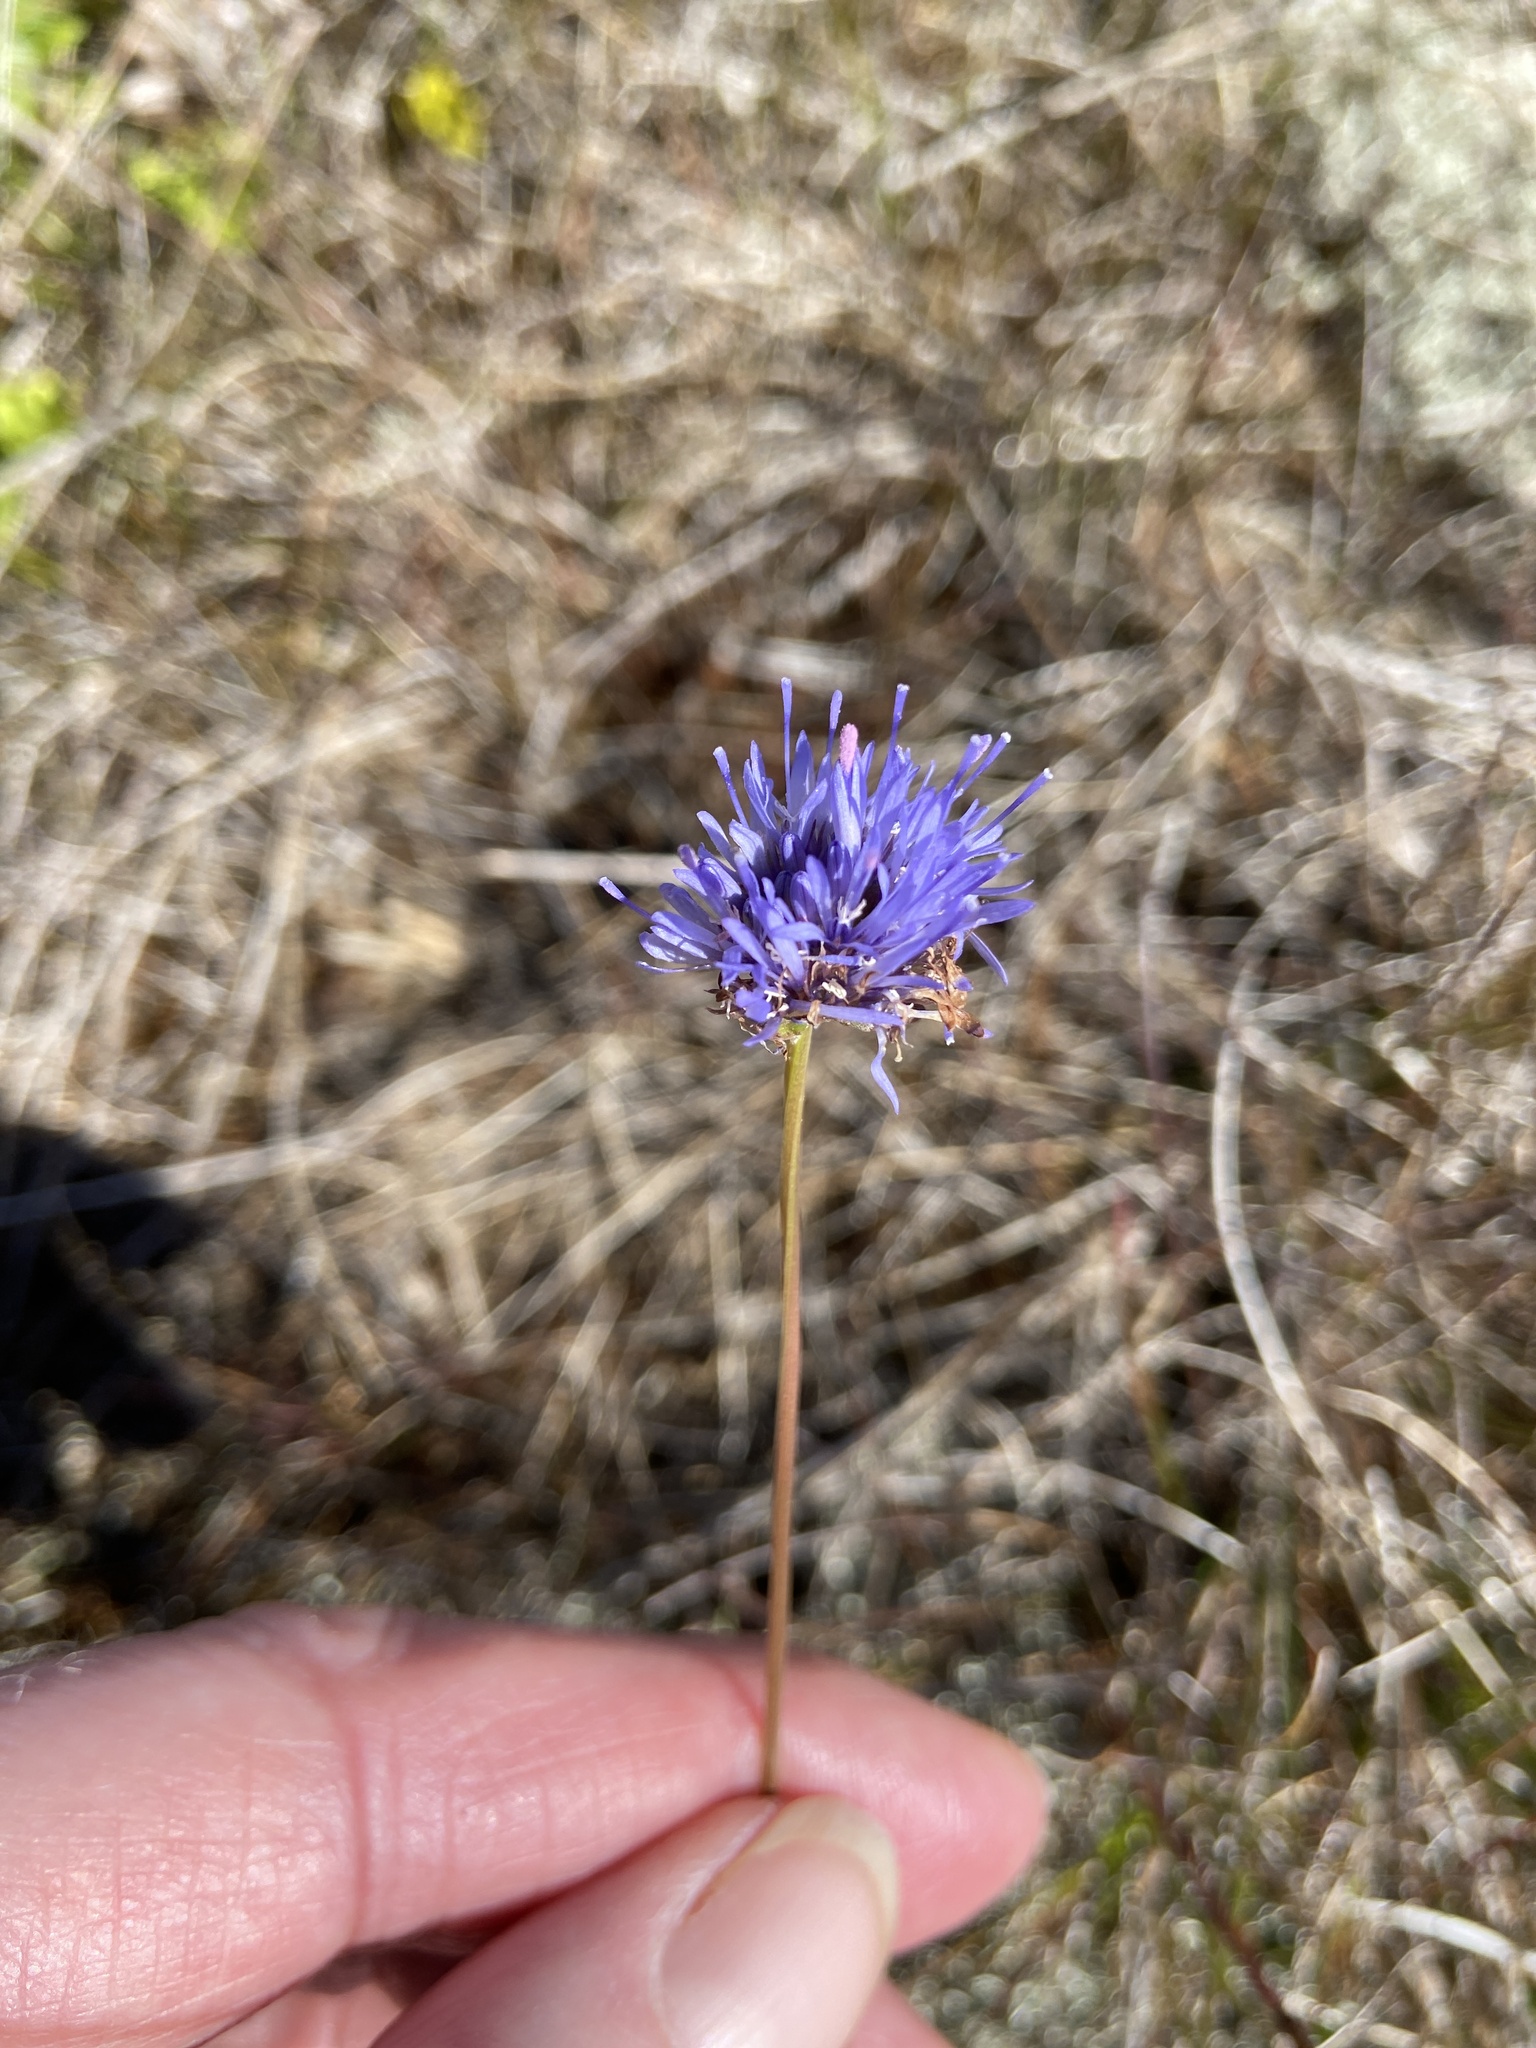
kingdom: Plantae
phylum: Tracheophyta
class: Magnoliopsida
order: Asterales
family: Campanulaceae
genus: Jasione
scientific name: Jasione montana
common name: Sheep's-bit
